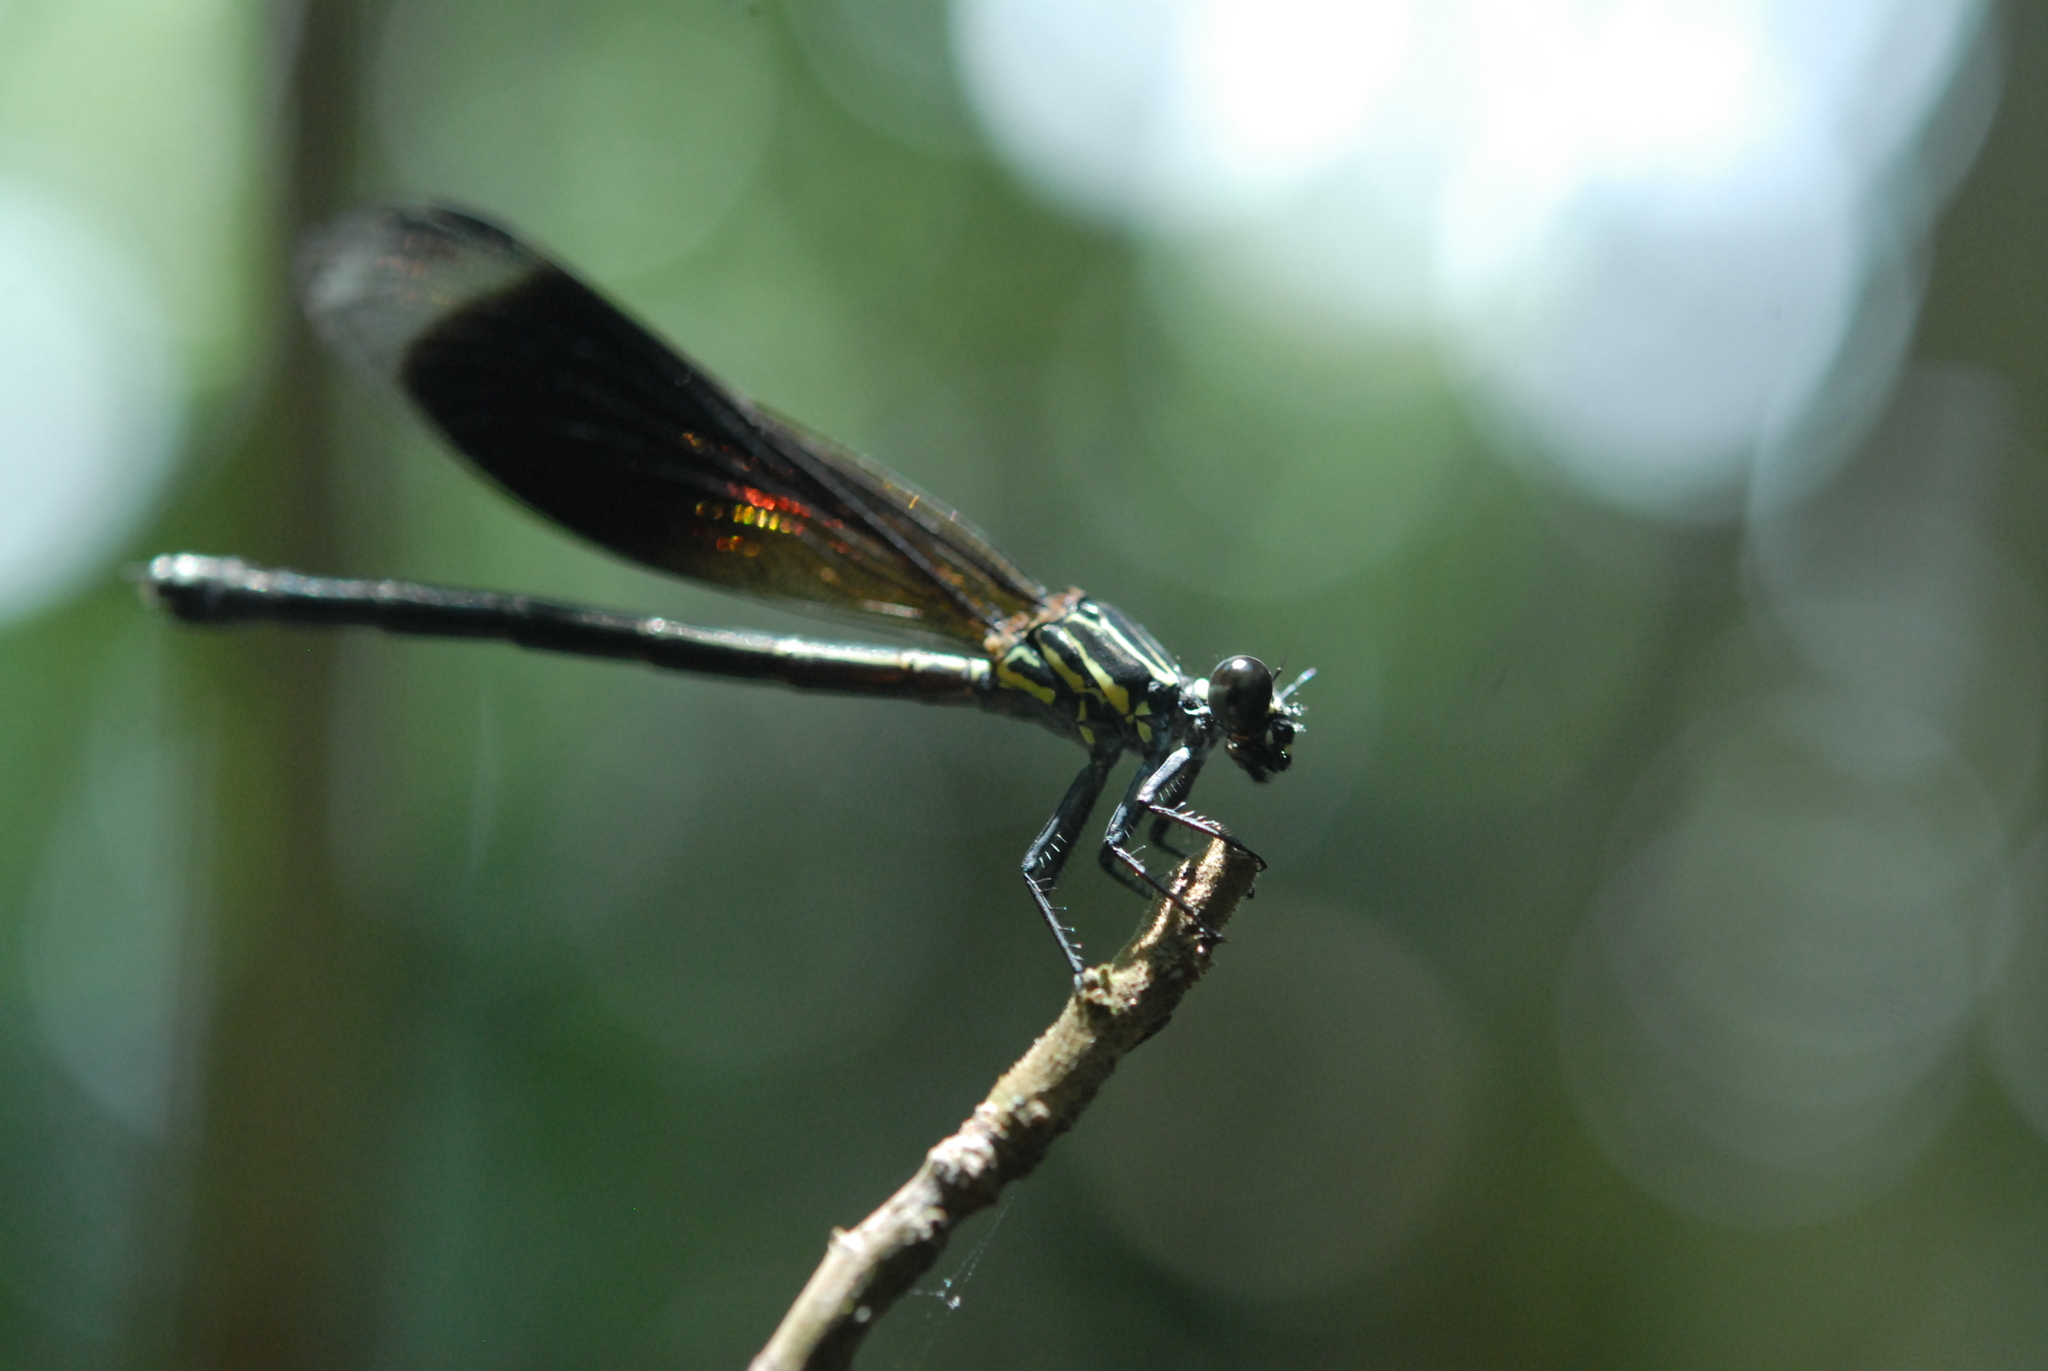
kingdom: Animalia
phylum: Arthropoda
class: Insecta
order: Odonata
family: Euphaeidae
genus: Euphaea
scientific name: Euphaea formosa
